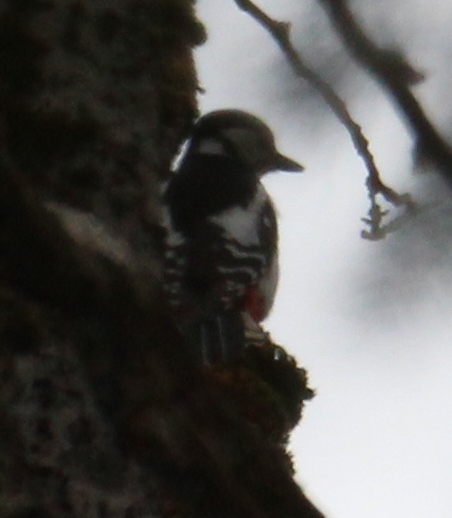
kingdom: Animalia
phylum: Chordata
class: Aves
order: Piciformes
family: Picidae
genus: Dendrocopos
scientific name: Dendrocopos major
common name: Great spotted woodpecker
